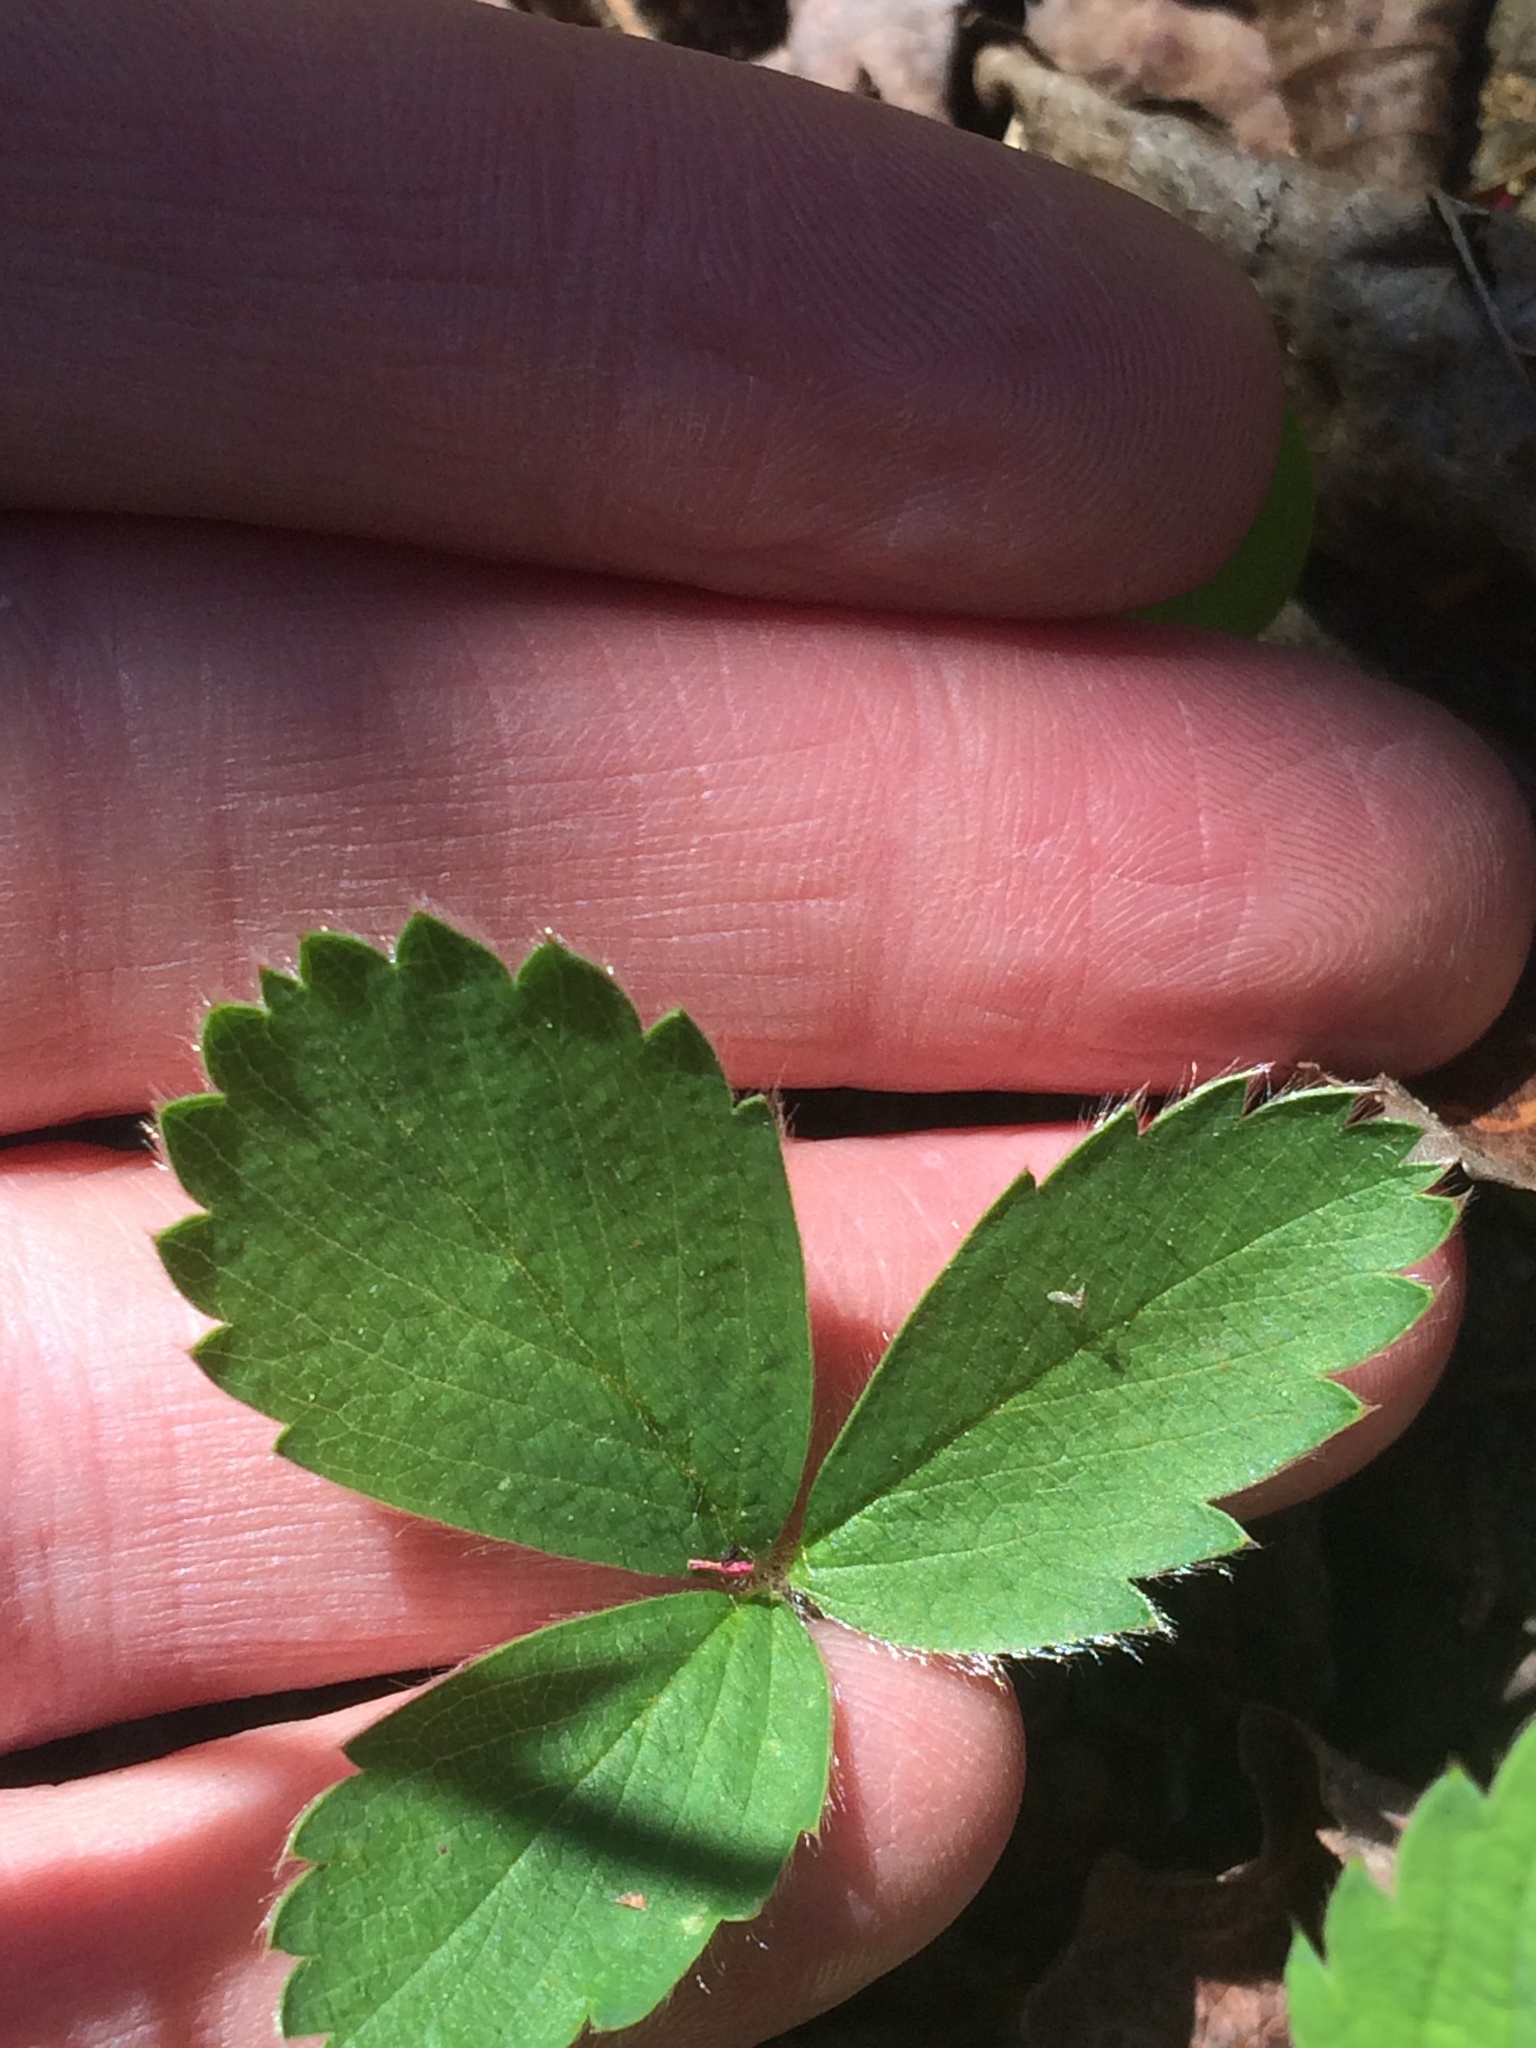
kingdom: Plantae
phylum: Tracheophyta
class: Magnoliopsida
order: Rosales
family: Rosaceae
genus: Fragaria
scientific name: Fragaria virginiana
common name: Thickleaved wild strawberry
